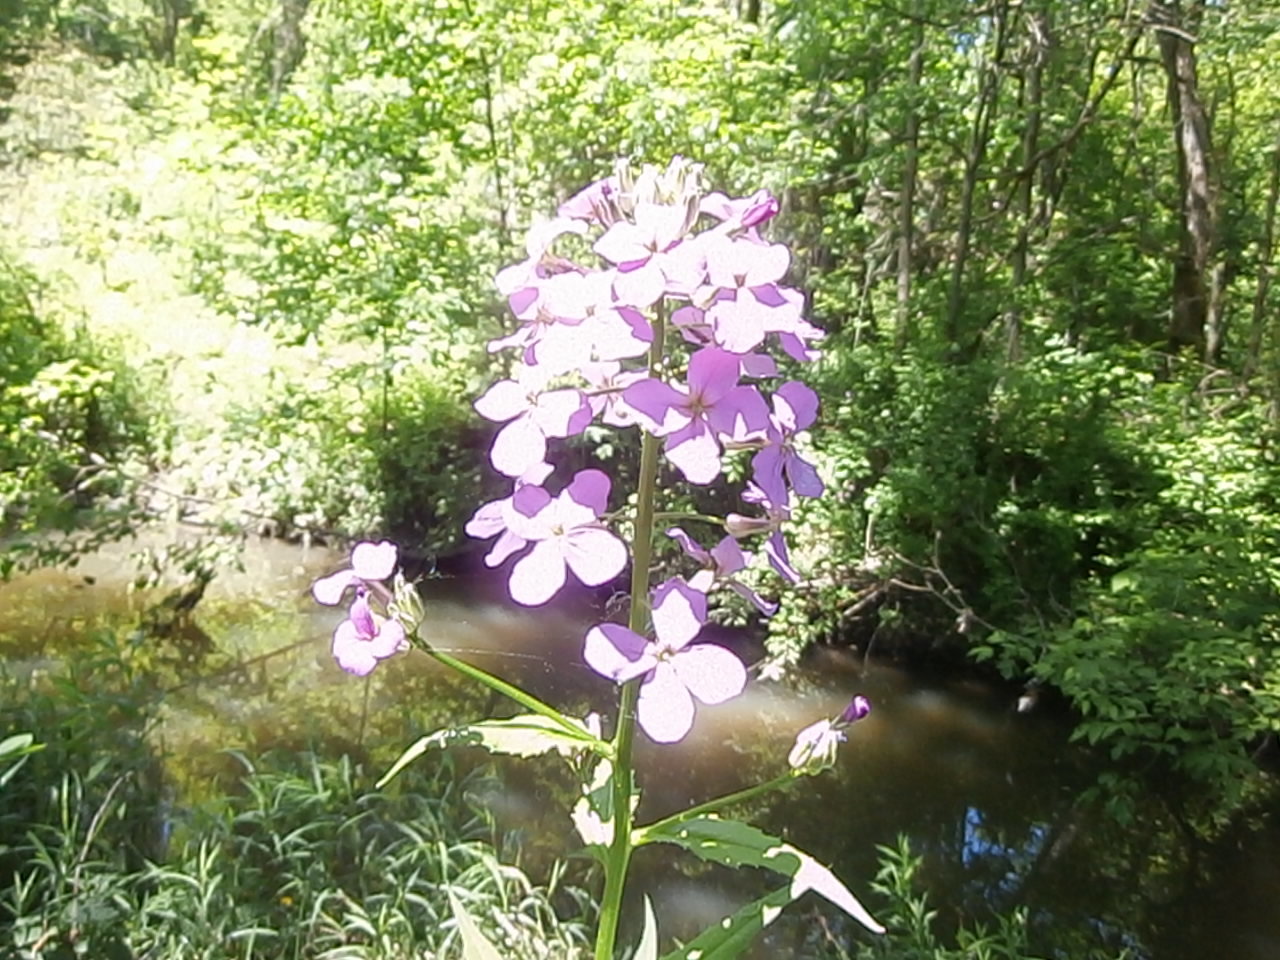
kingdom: Plantae
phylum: Tracheophyta
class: Magnoliopsida
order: Brassicales
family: Brassicaceae
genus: Hesperis
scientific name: Hesperis matronalis
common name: Dame's-violet
